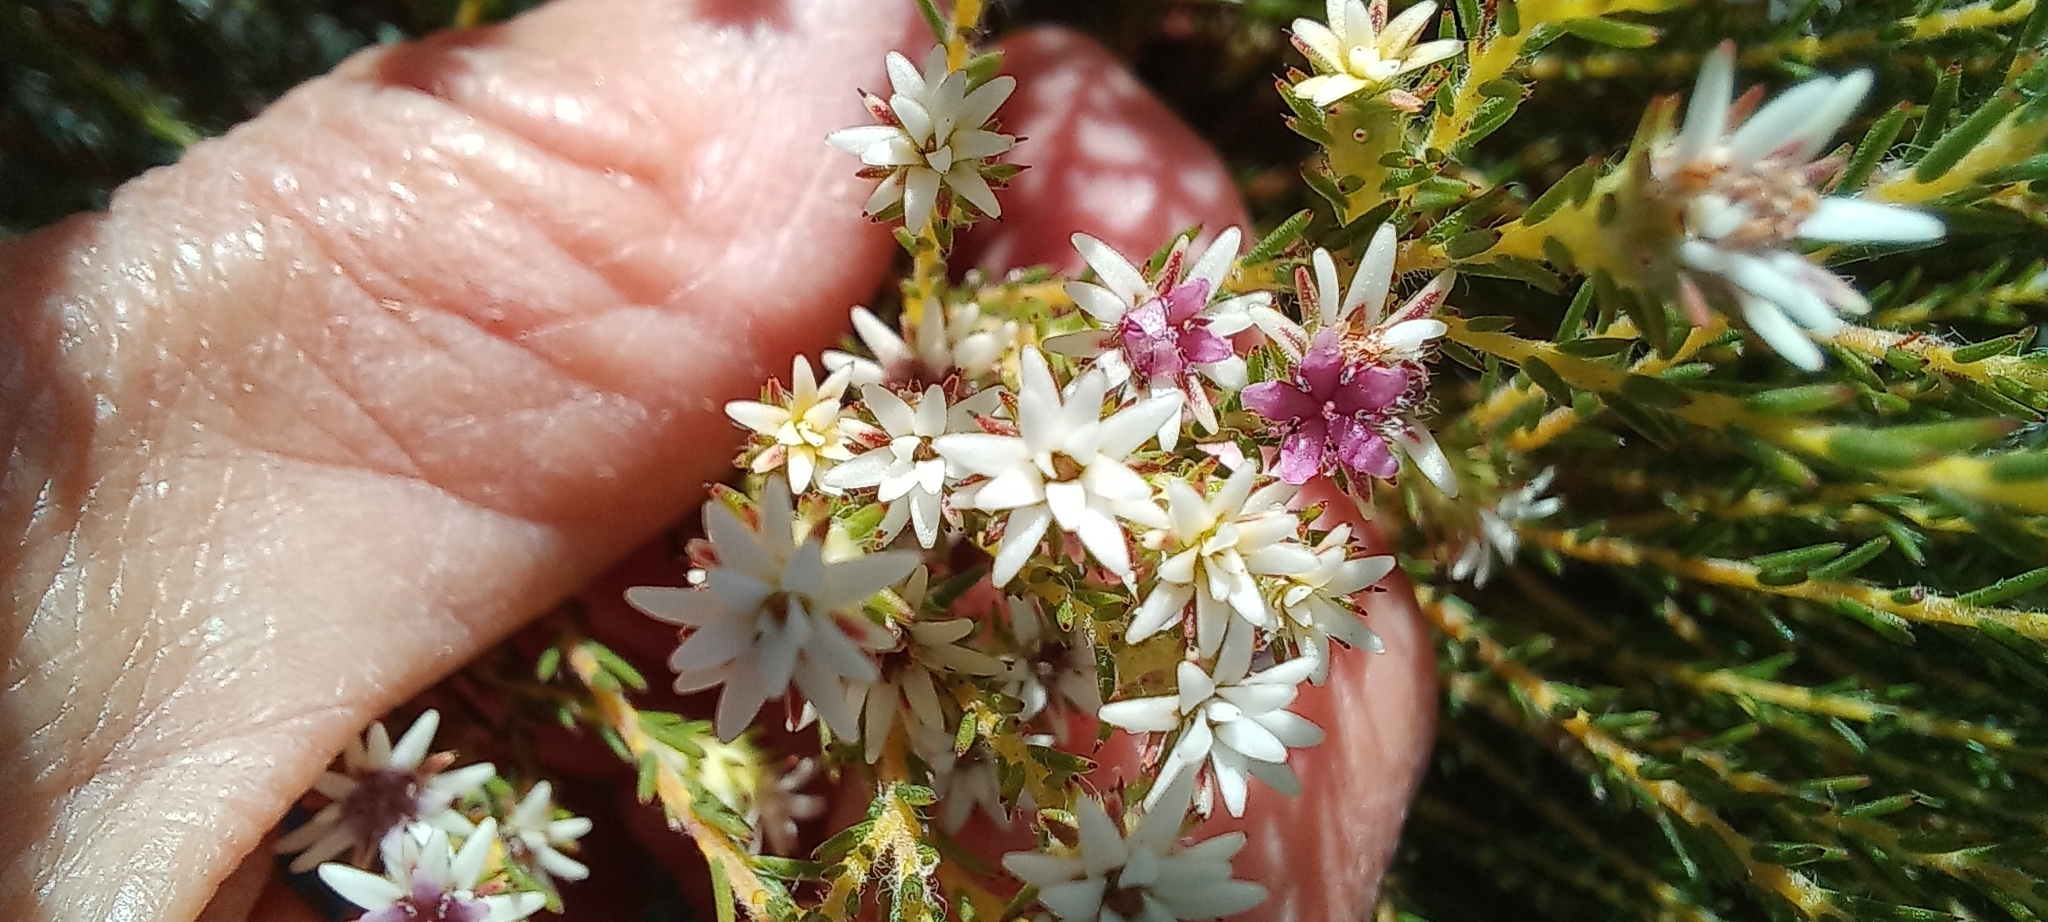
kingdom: Plantae
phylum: Tracheophyta
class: Magnoliopsida
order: Bruniales
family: Bruniaceae
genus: Staavia
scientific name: Staavia radiata
